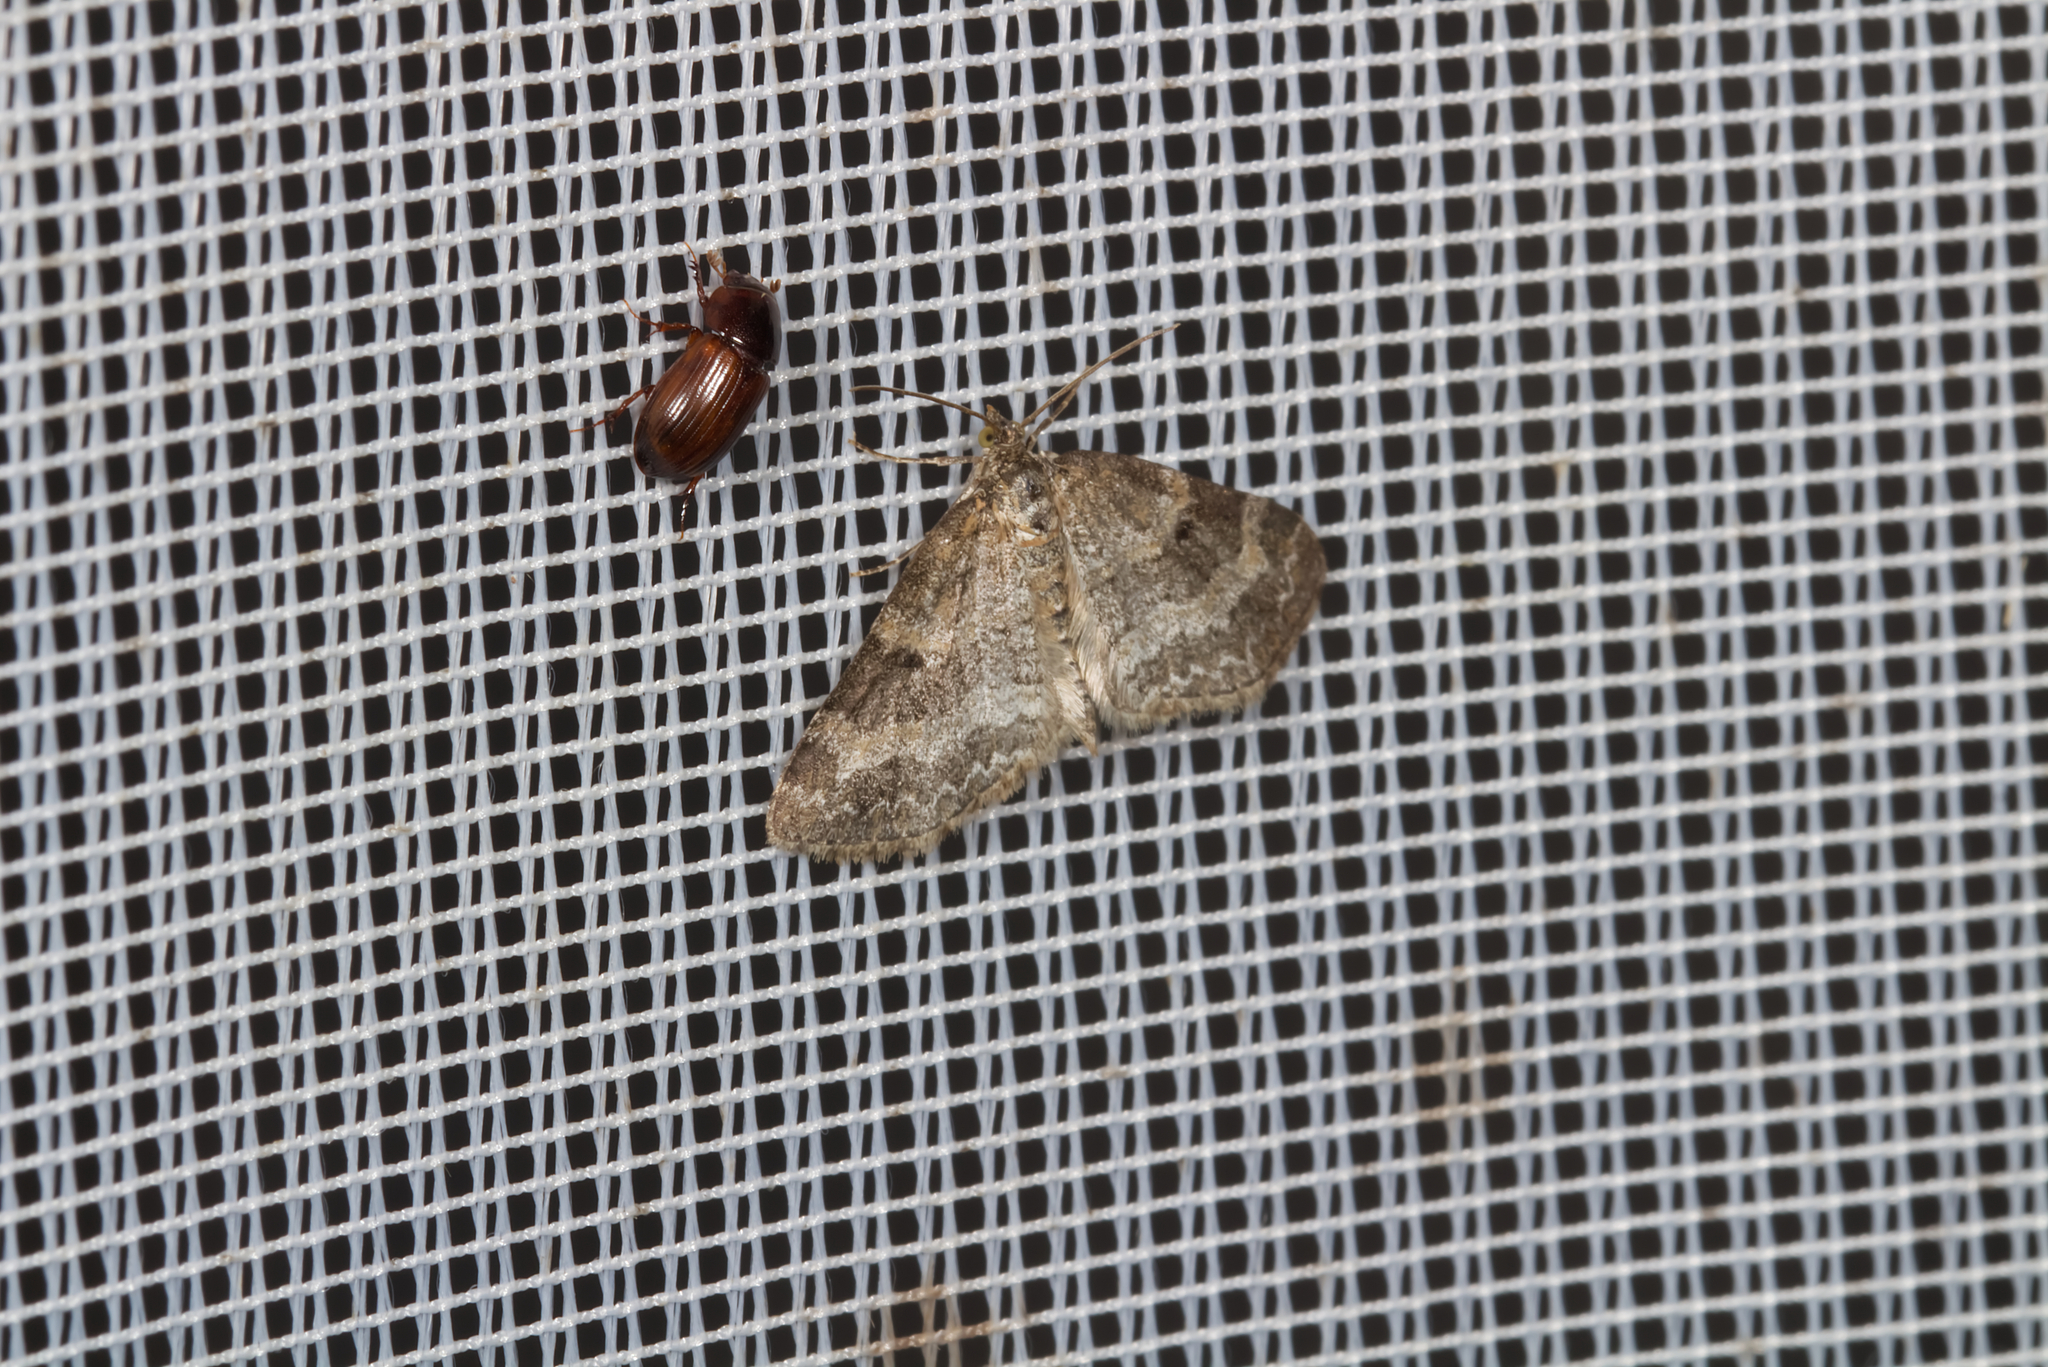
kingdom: Animalia
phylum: Arthropoda
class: Insecta
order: Lepidoptera
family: Geometridae
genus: Pterapherapteryx
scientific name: Pterapherapteryx sexalata
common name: Small seraphim
